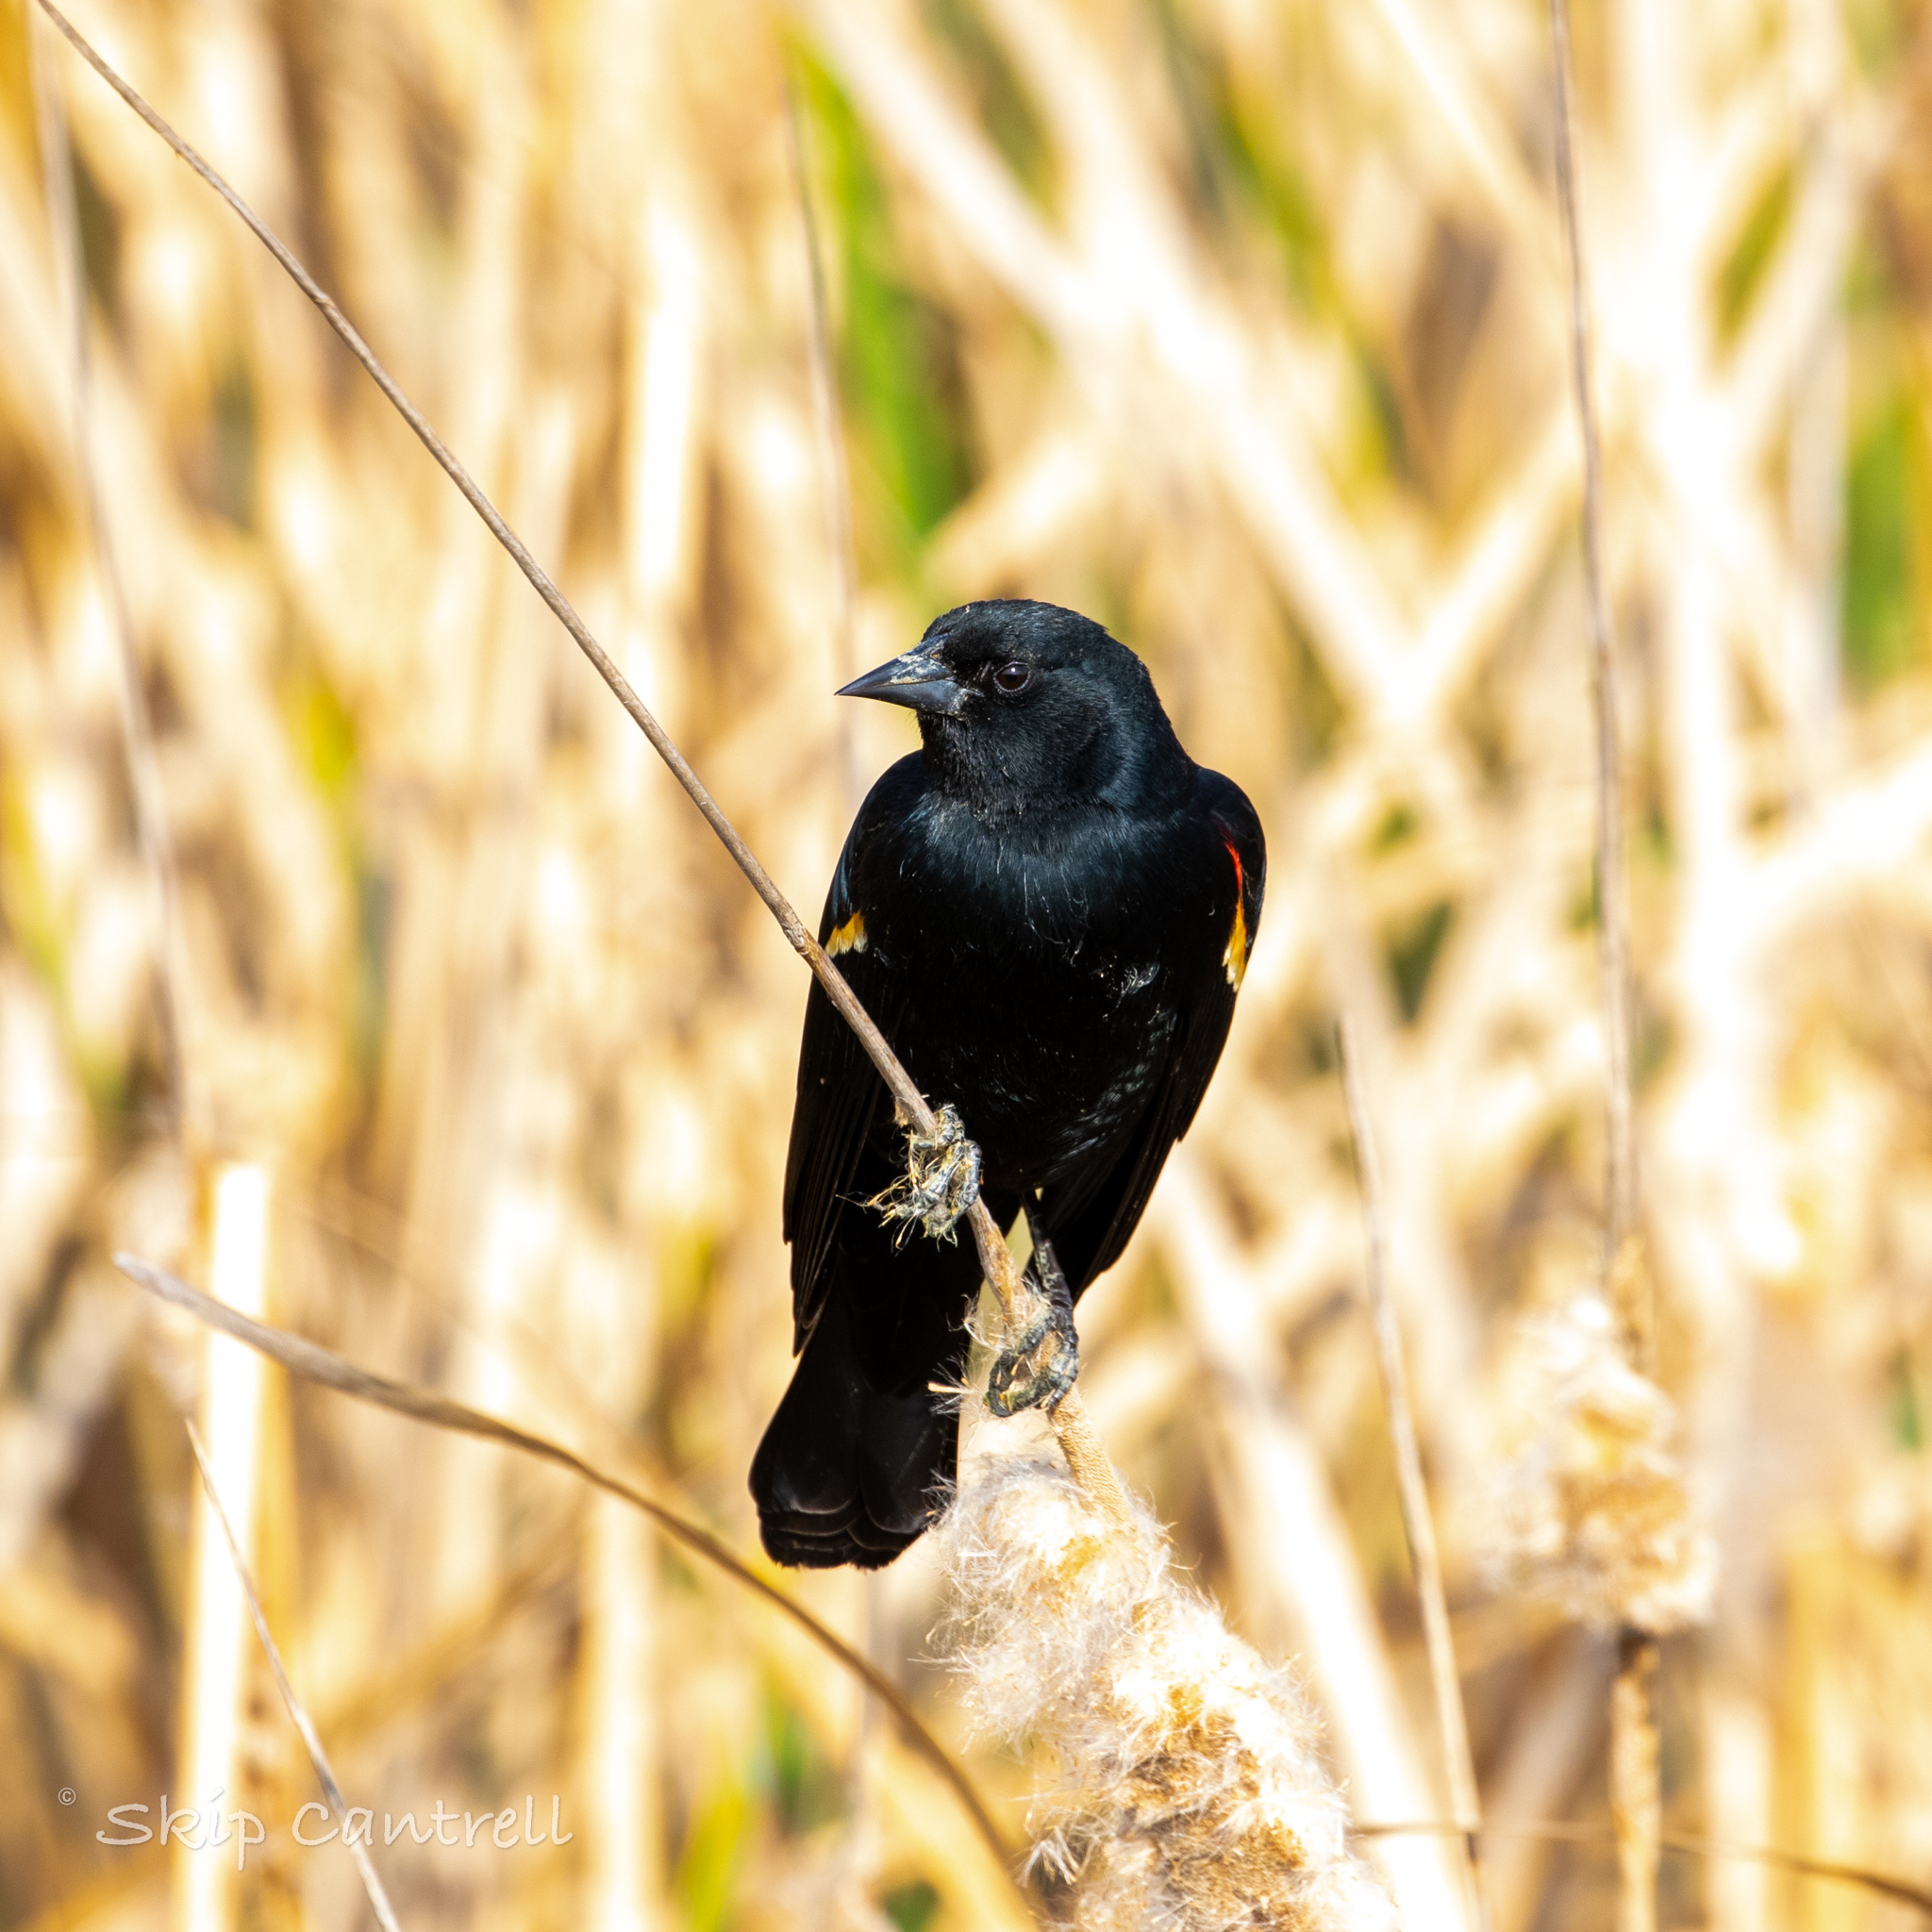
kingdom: Animalia
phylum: Chordata
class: Aves
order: Passeriformes
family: Icteridae
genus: Agelaius
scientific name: Agelaius phoeniceus
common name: Red-winged blackbird
